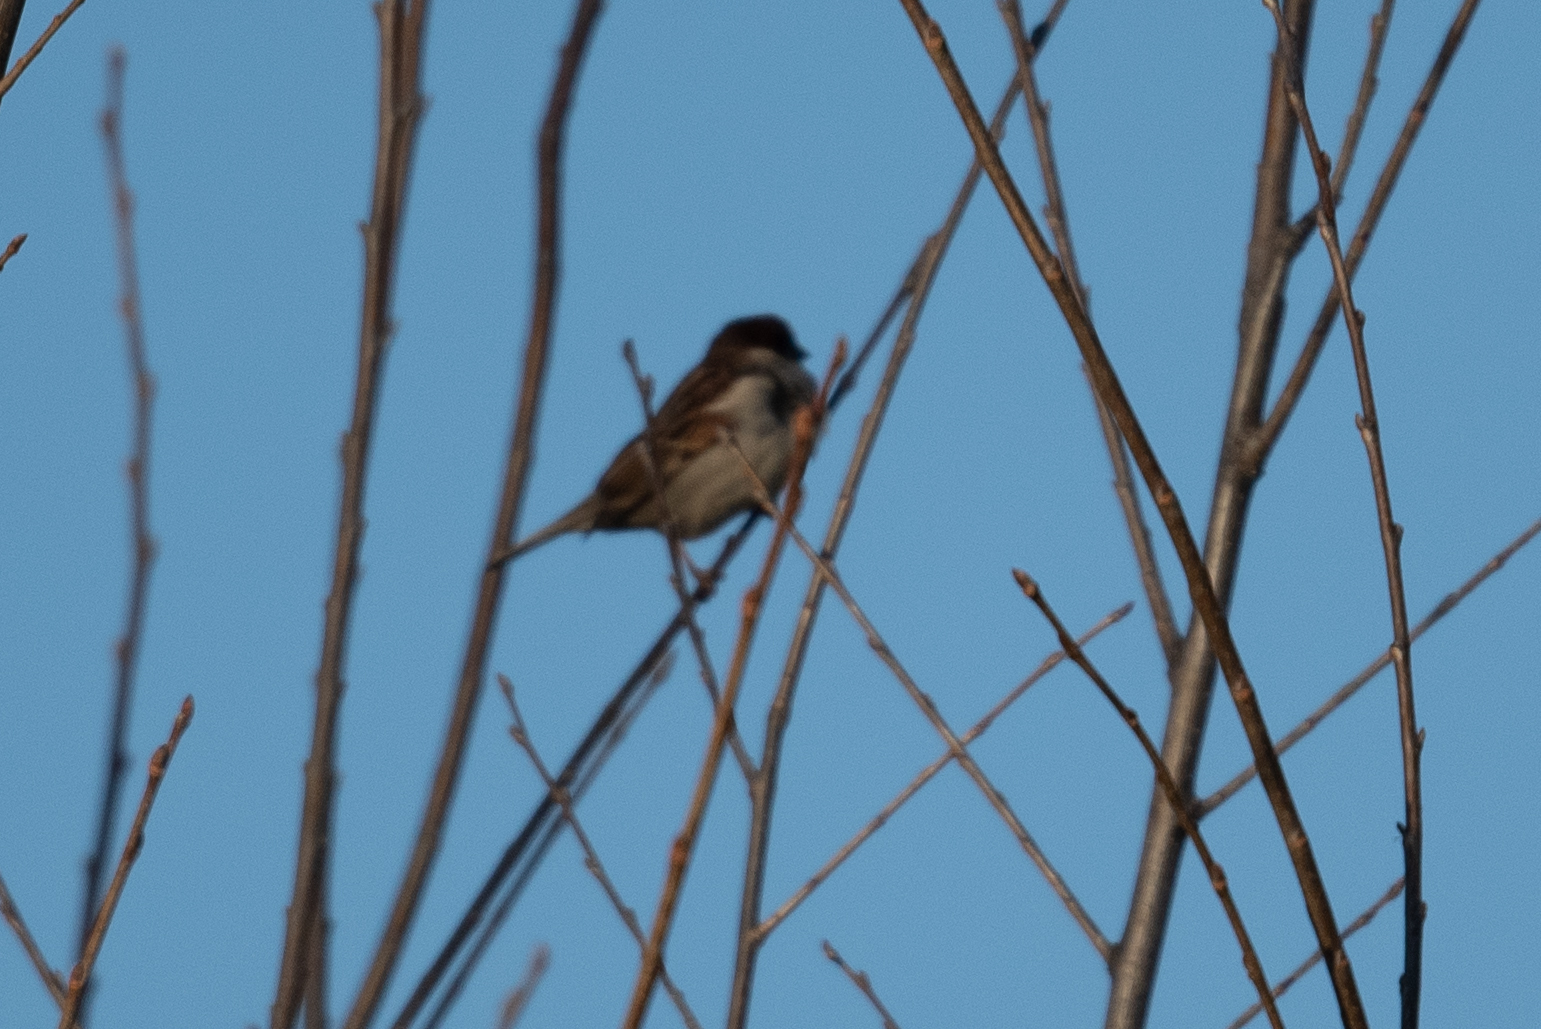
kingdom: Animalia
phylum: Chordata
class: Aves
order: Passeriformes
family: Passeridae
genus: Passer
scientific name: Passer domesticus
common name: House sparrow
